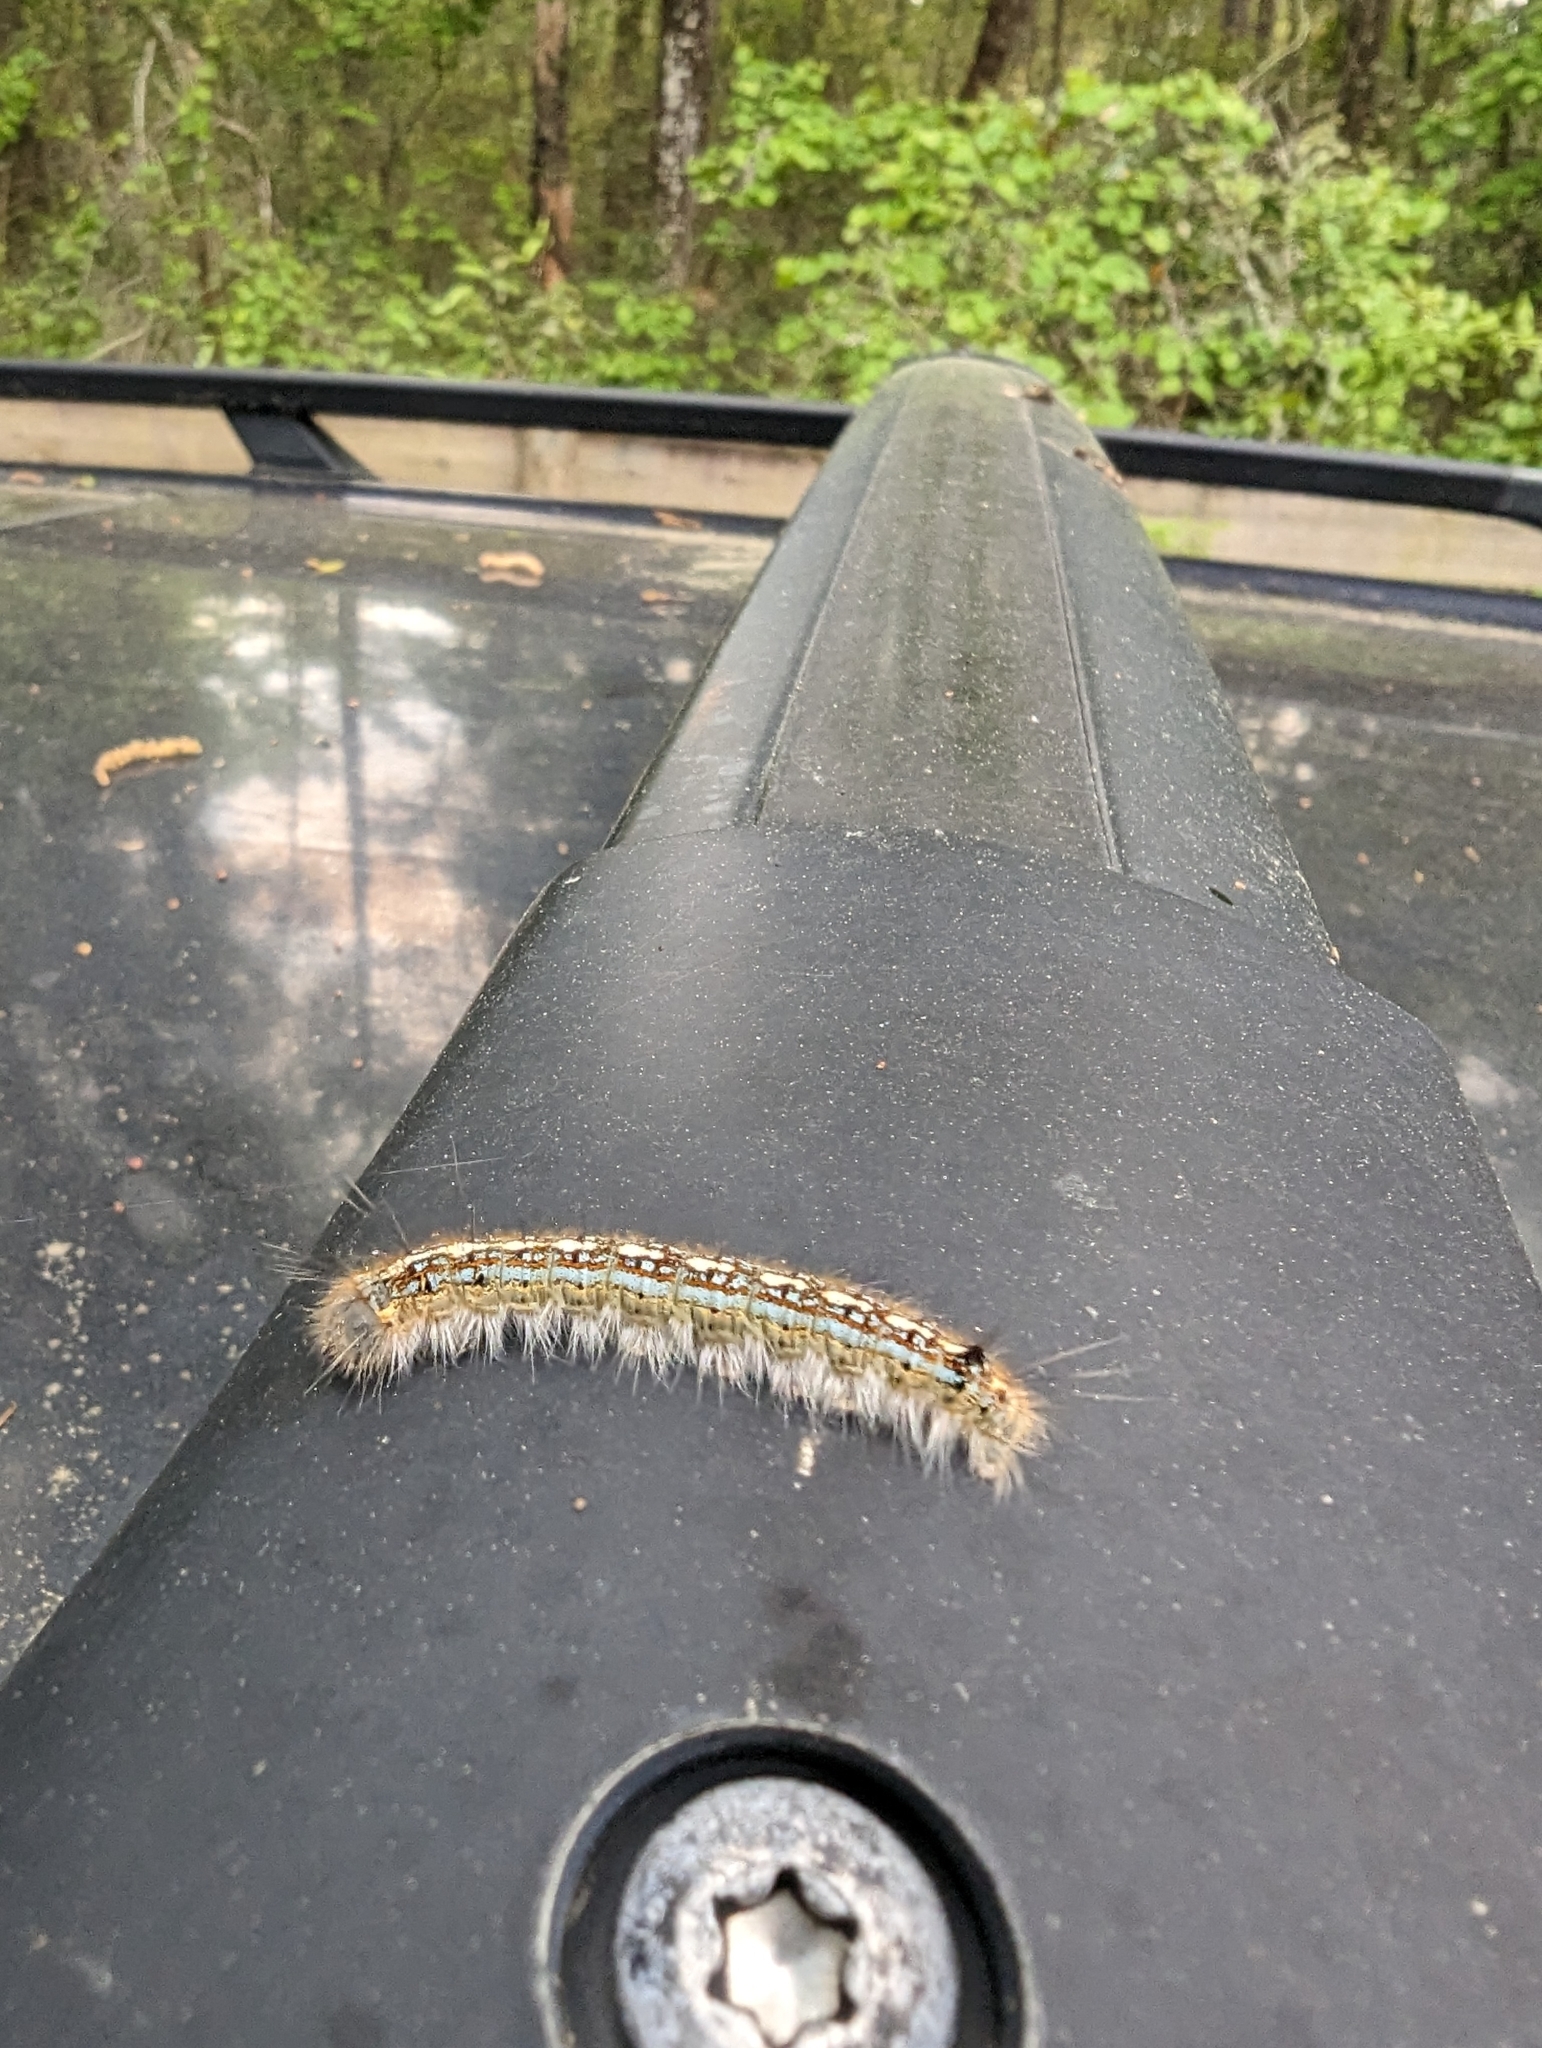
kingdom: Animalia
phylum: Arthropoda
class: Insecta
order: Lepidoptera
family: Lasiocampidae
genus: Malacosoma
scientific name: Malacosoma disstria
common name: Forest tent caterpillar
